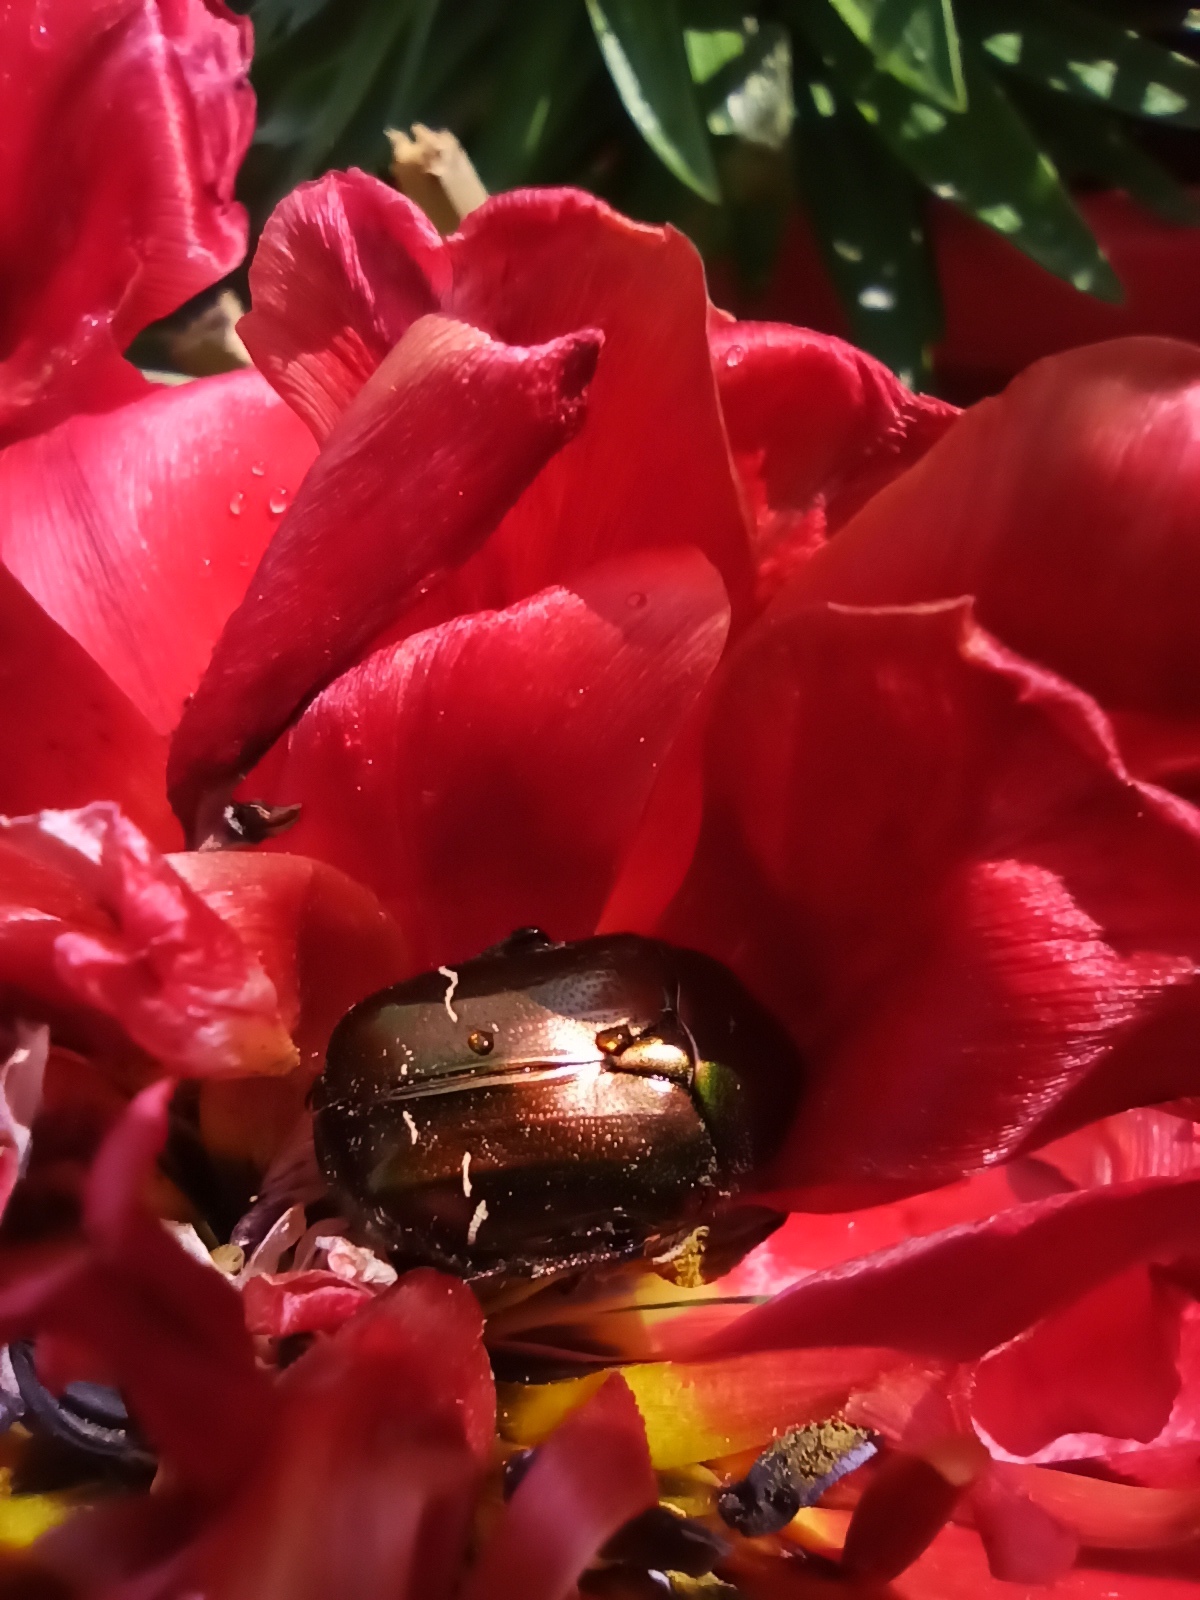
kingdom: Animalia
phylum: Arthropoda
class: Insecta
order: Coleoptera
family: Scarabaeidae
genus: Cetonia
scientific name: Cetonia aurata
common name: Rose chafer
